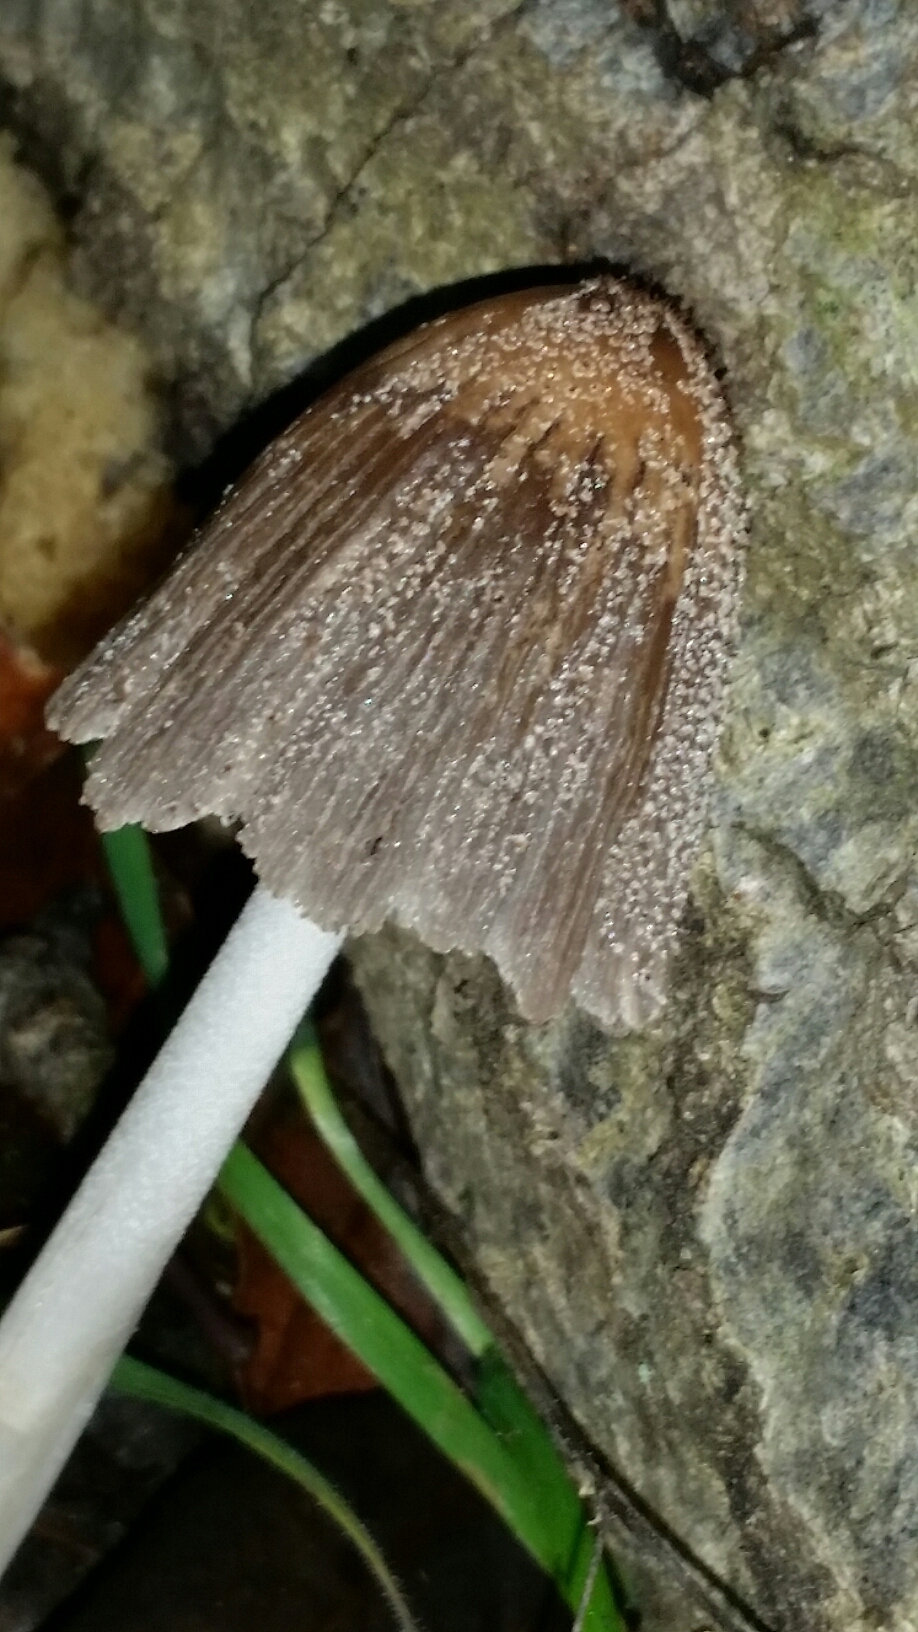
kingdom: Fungi
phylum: Basidiomycota
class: Agaricomycetes
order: Agaricales
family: Psathyrellaceae
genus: Coprinellus
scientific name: Coprinellus micaceus
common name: Glistening ink-cap
